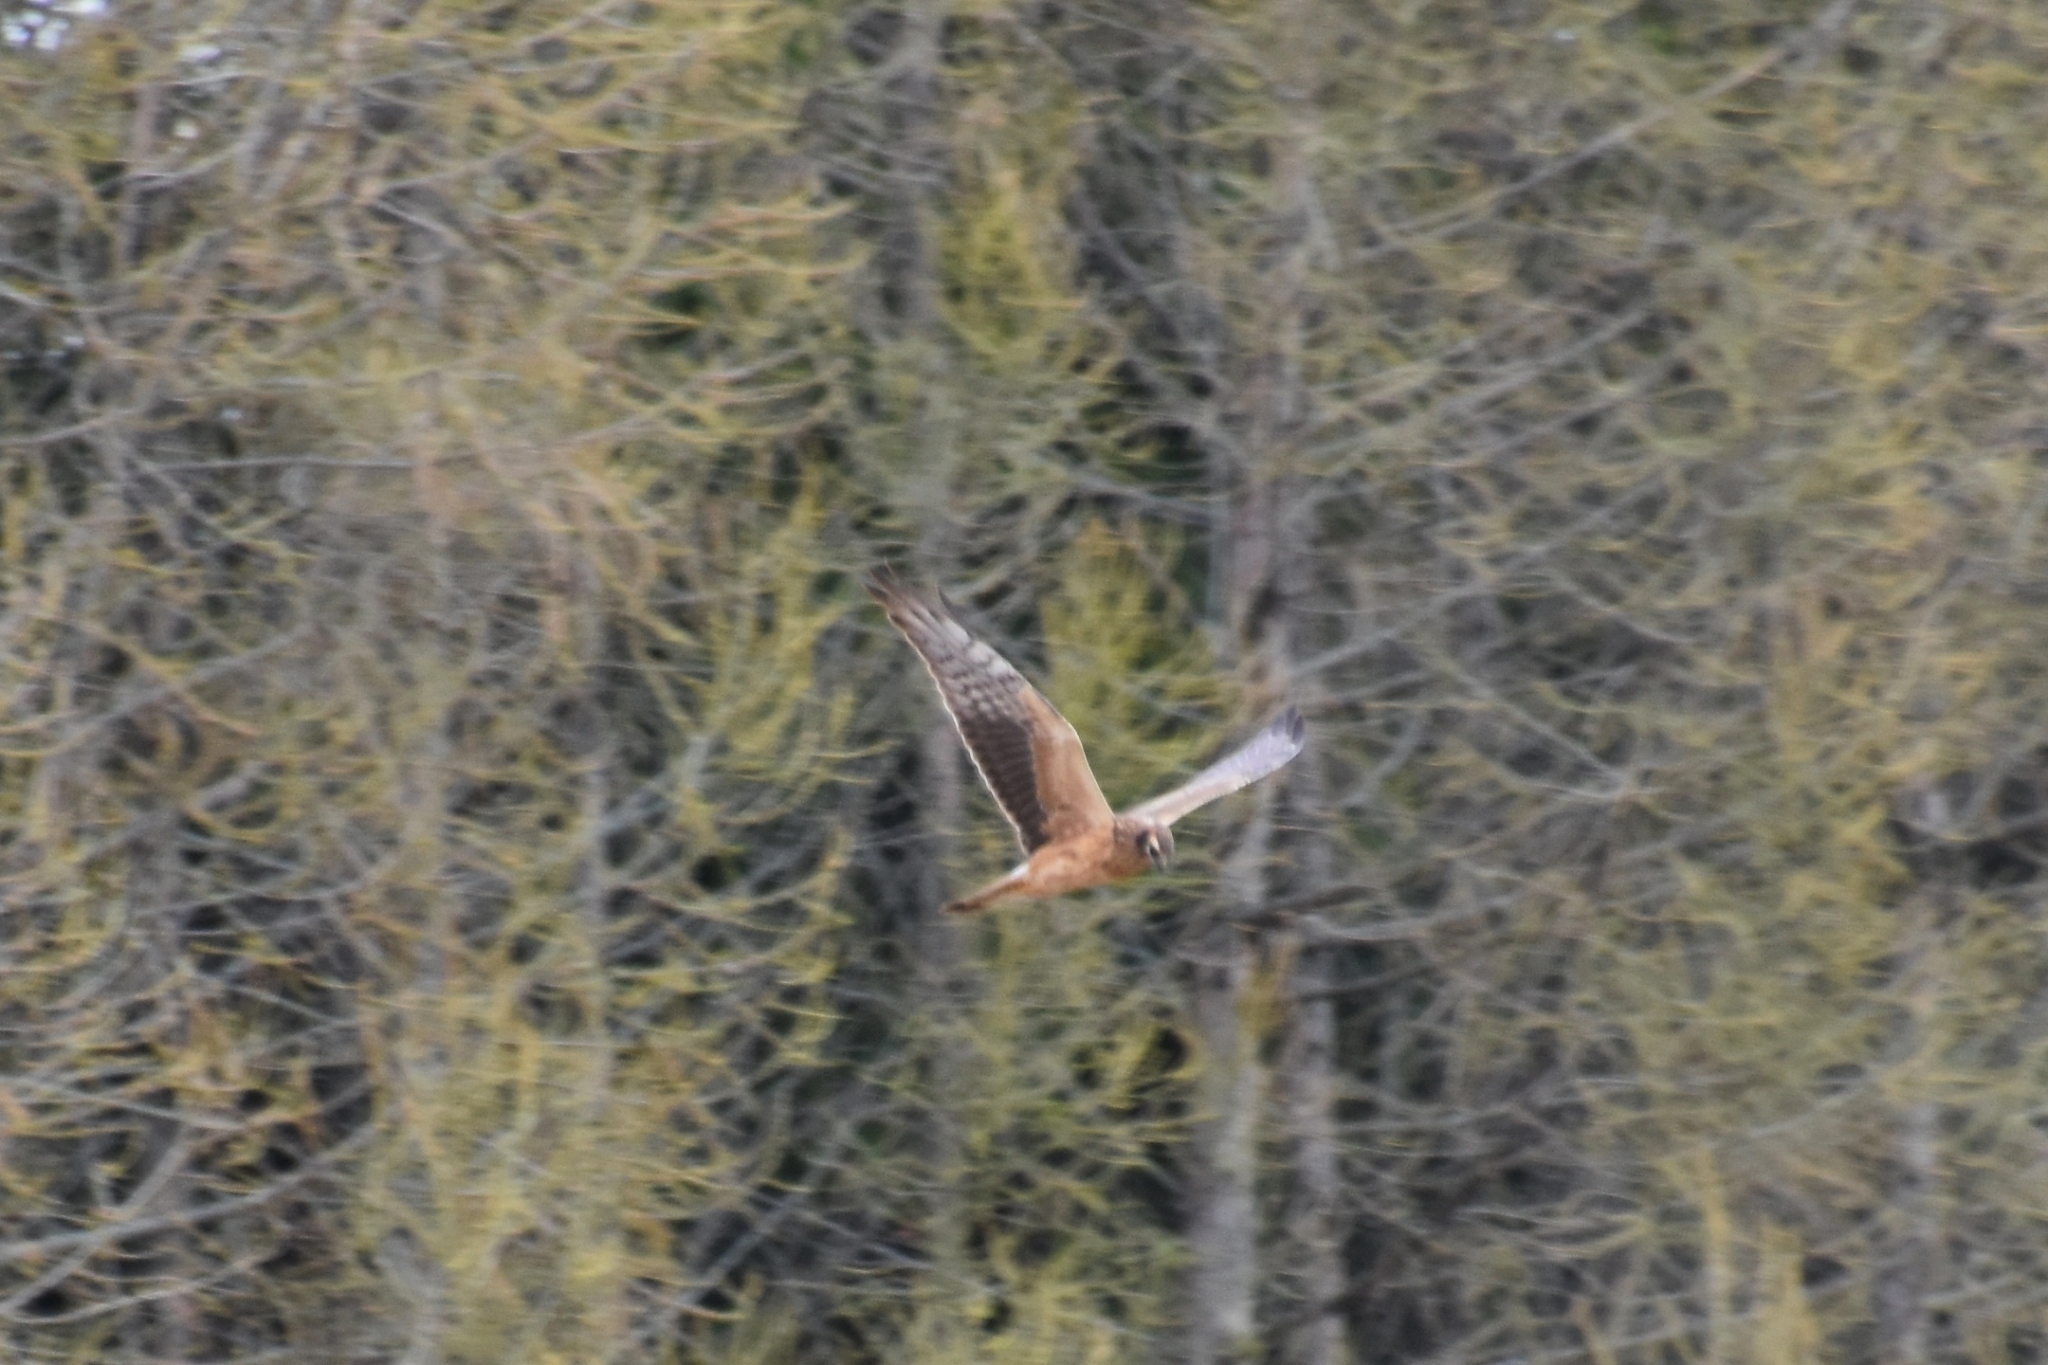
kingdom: Animalia
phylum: Chordata
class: Aves
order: Accipitriformes
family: Accipitridae
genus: Circus
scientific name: Circus pygargus
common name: Montagu's harrier
